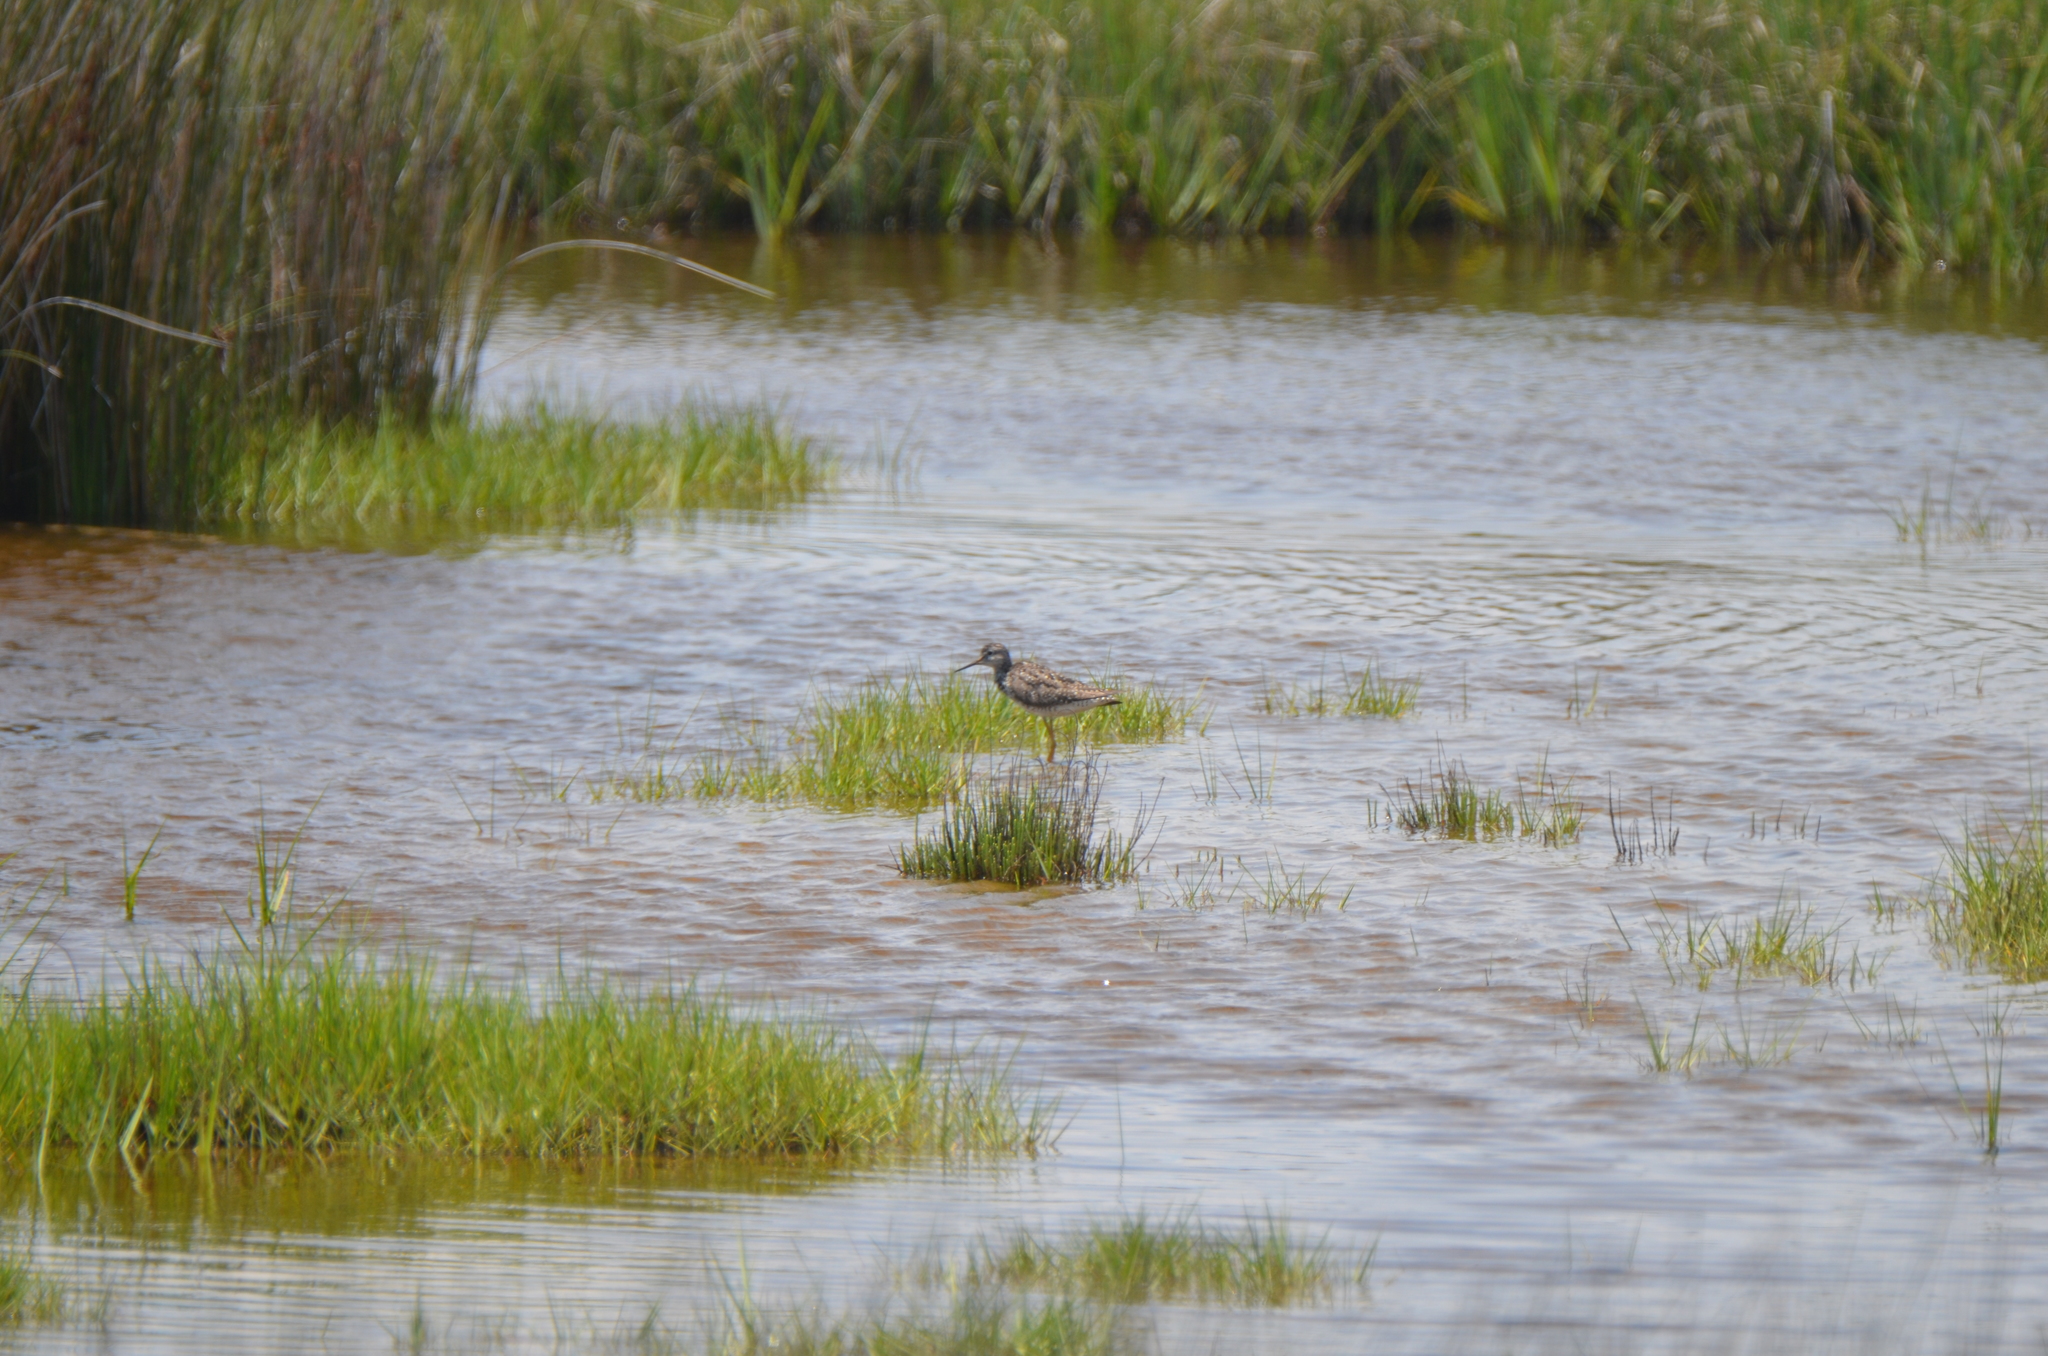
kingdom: Animalia
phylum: Chordata
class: Aves
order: Charadriiformes
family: Scolopacidae
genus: Tringa
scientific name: Tringa flavipes
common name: Lesser yellowlegs
